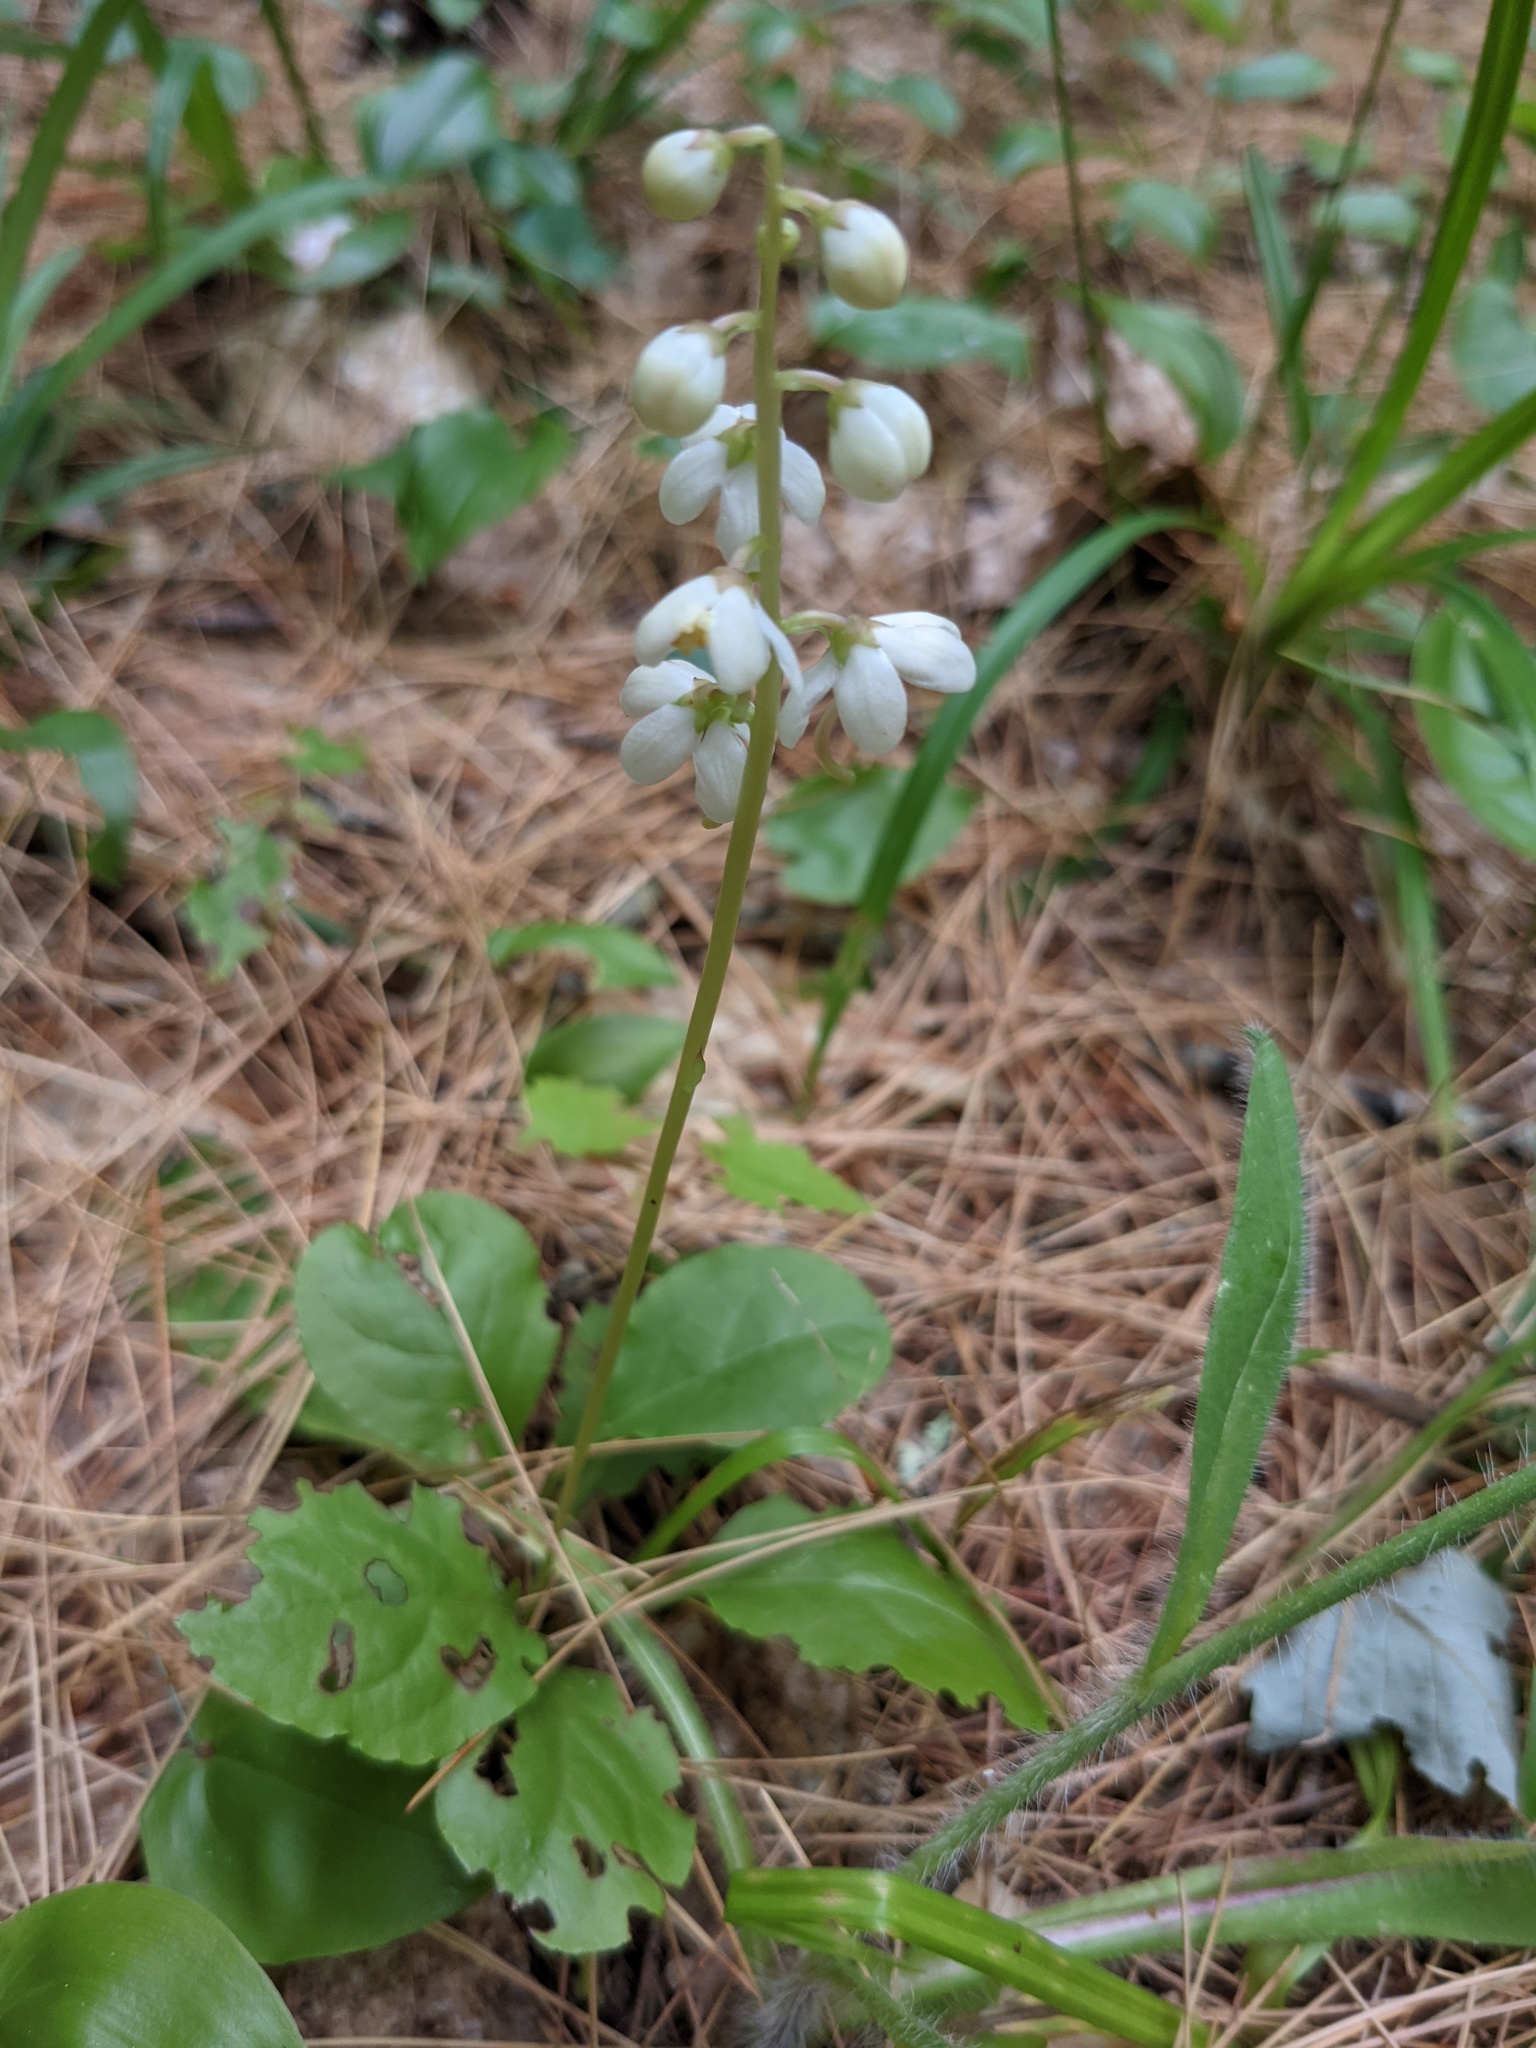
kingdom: Plantae
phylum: Tracheophyta
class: Magnoliopsida
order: Ericales
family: Ericaceae
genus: Pyrola
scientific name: Pyrola elliptica
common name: Shinleaf
